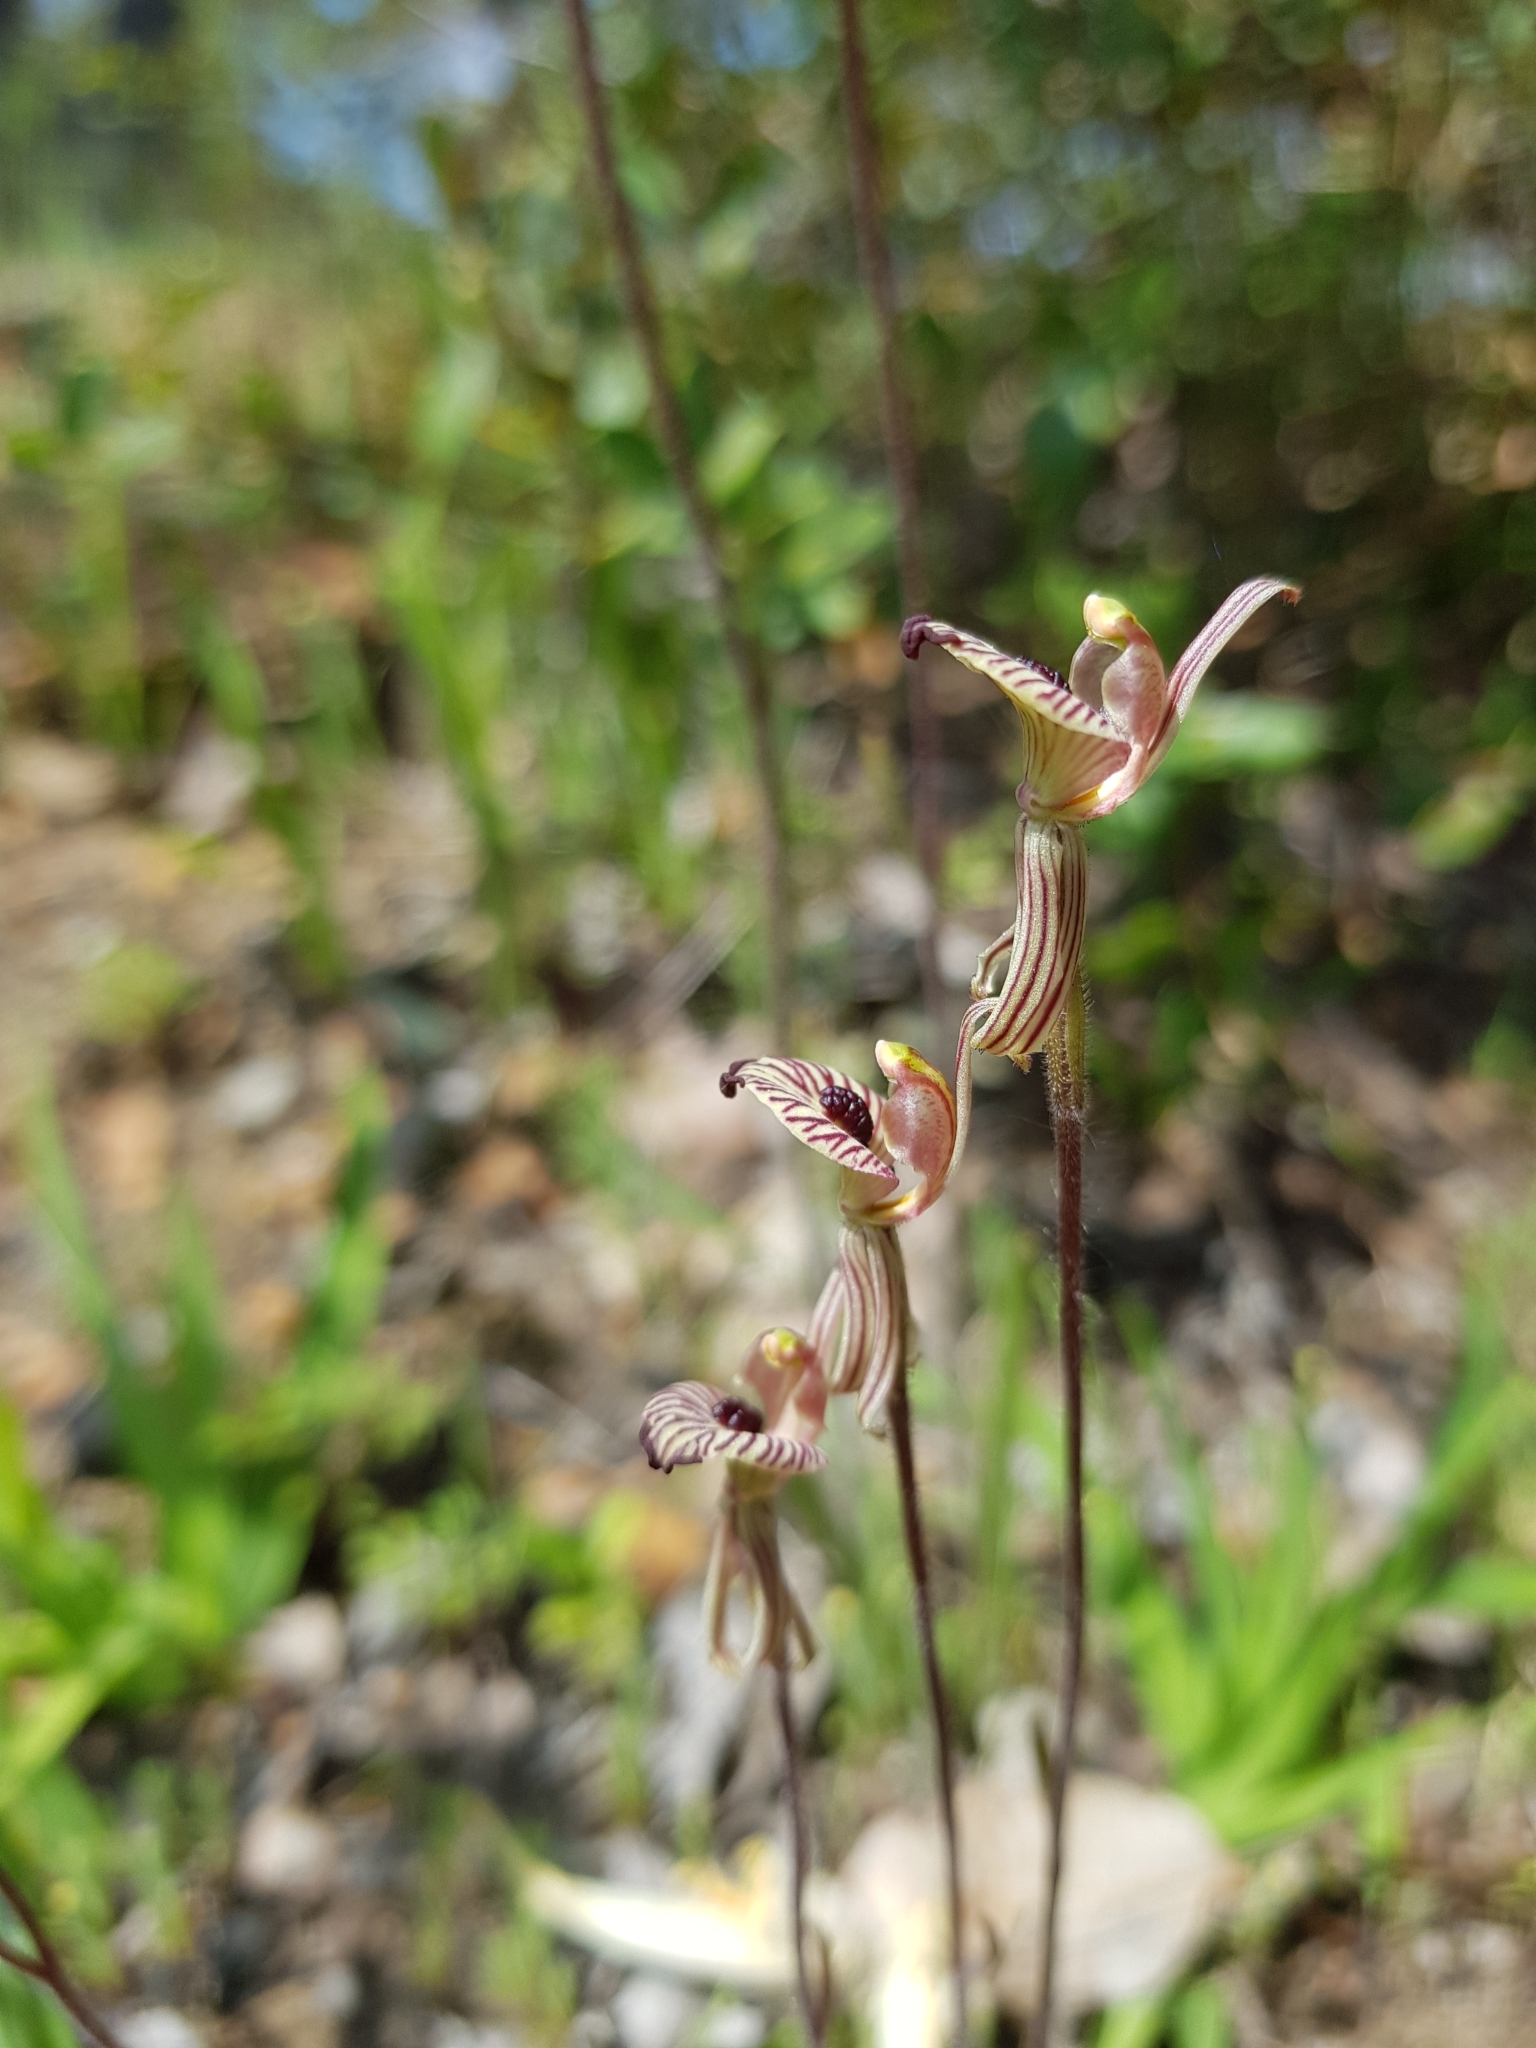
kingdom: Plantae
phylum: Tracheophyta
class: Liliopsida
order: Asparagales
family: Orchidaceae
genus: Caladenia
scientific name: Caladenia cairnsiana
